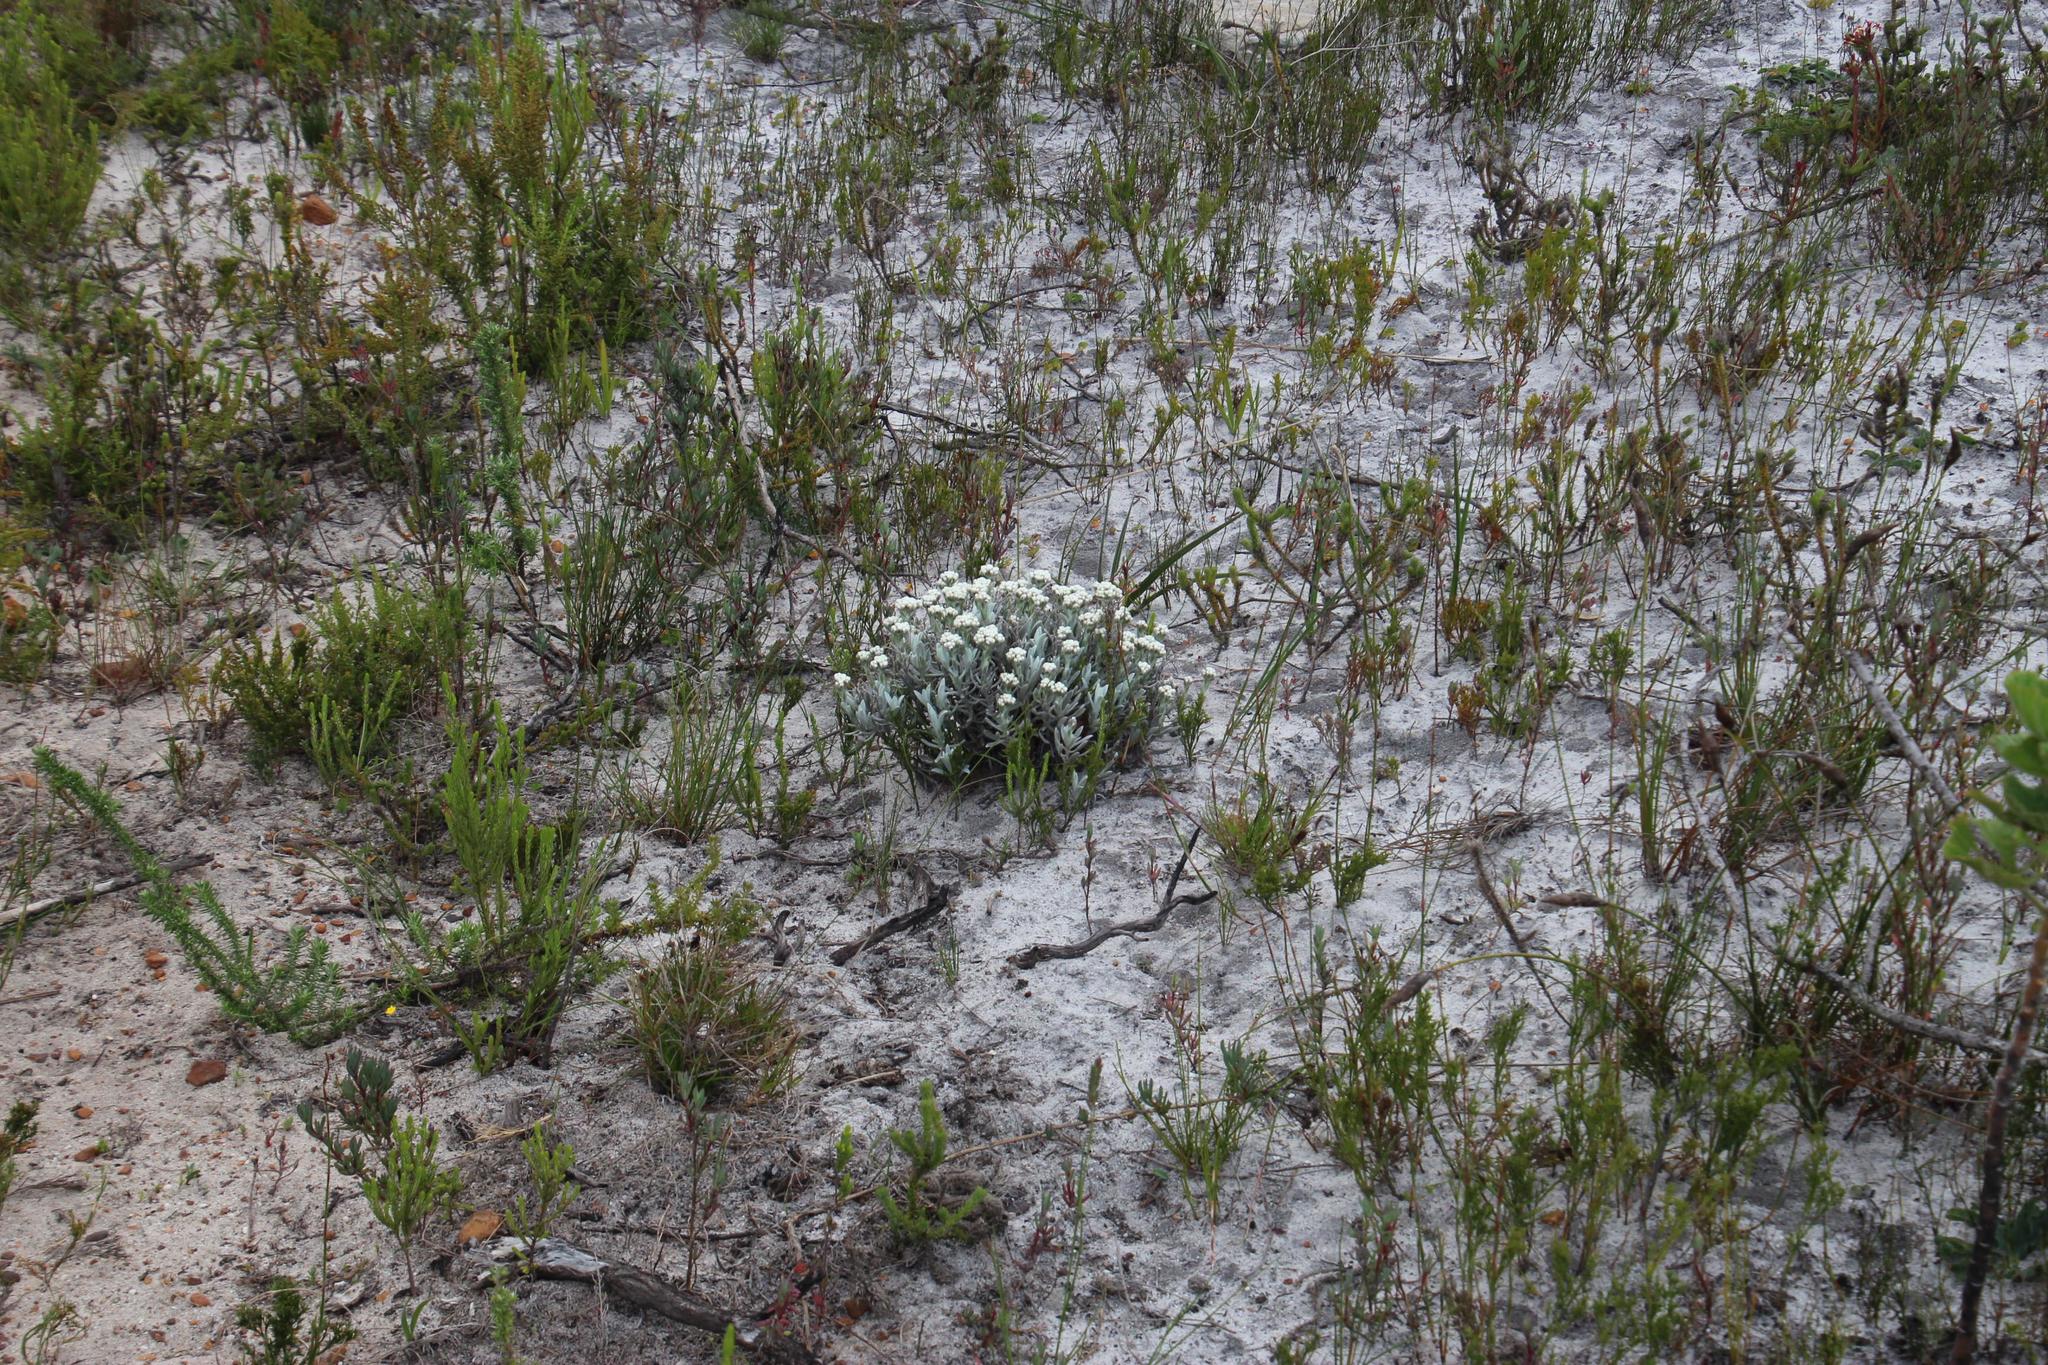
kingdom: Plantae
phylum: Tracheophyta
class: Magnoliopsida
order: Asterales
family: Asteraceae
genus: Petalacte
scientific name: Petalacte coronata
